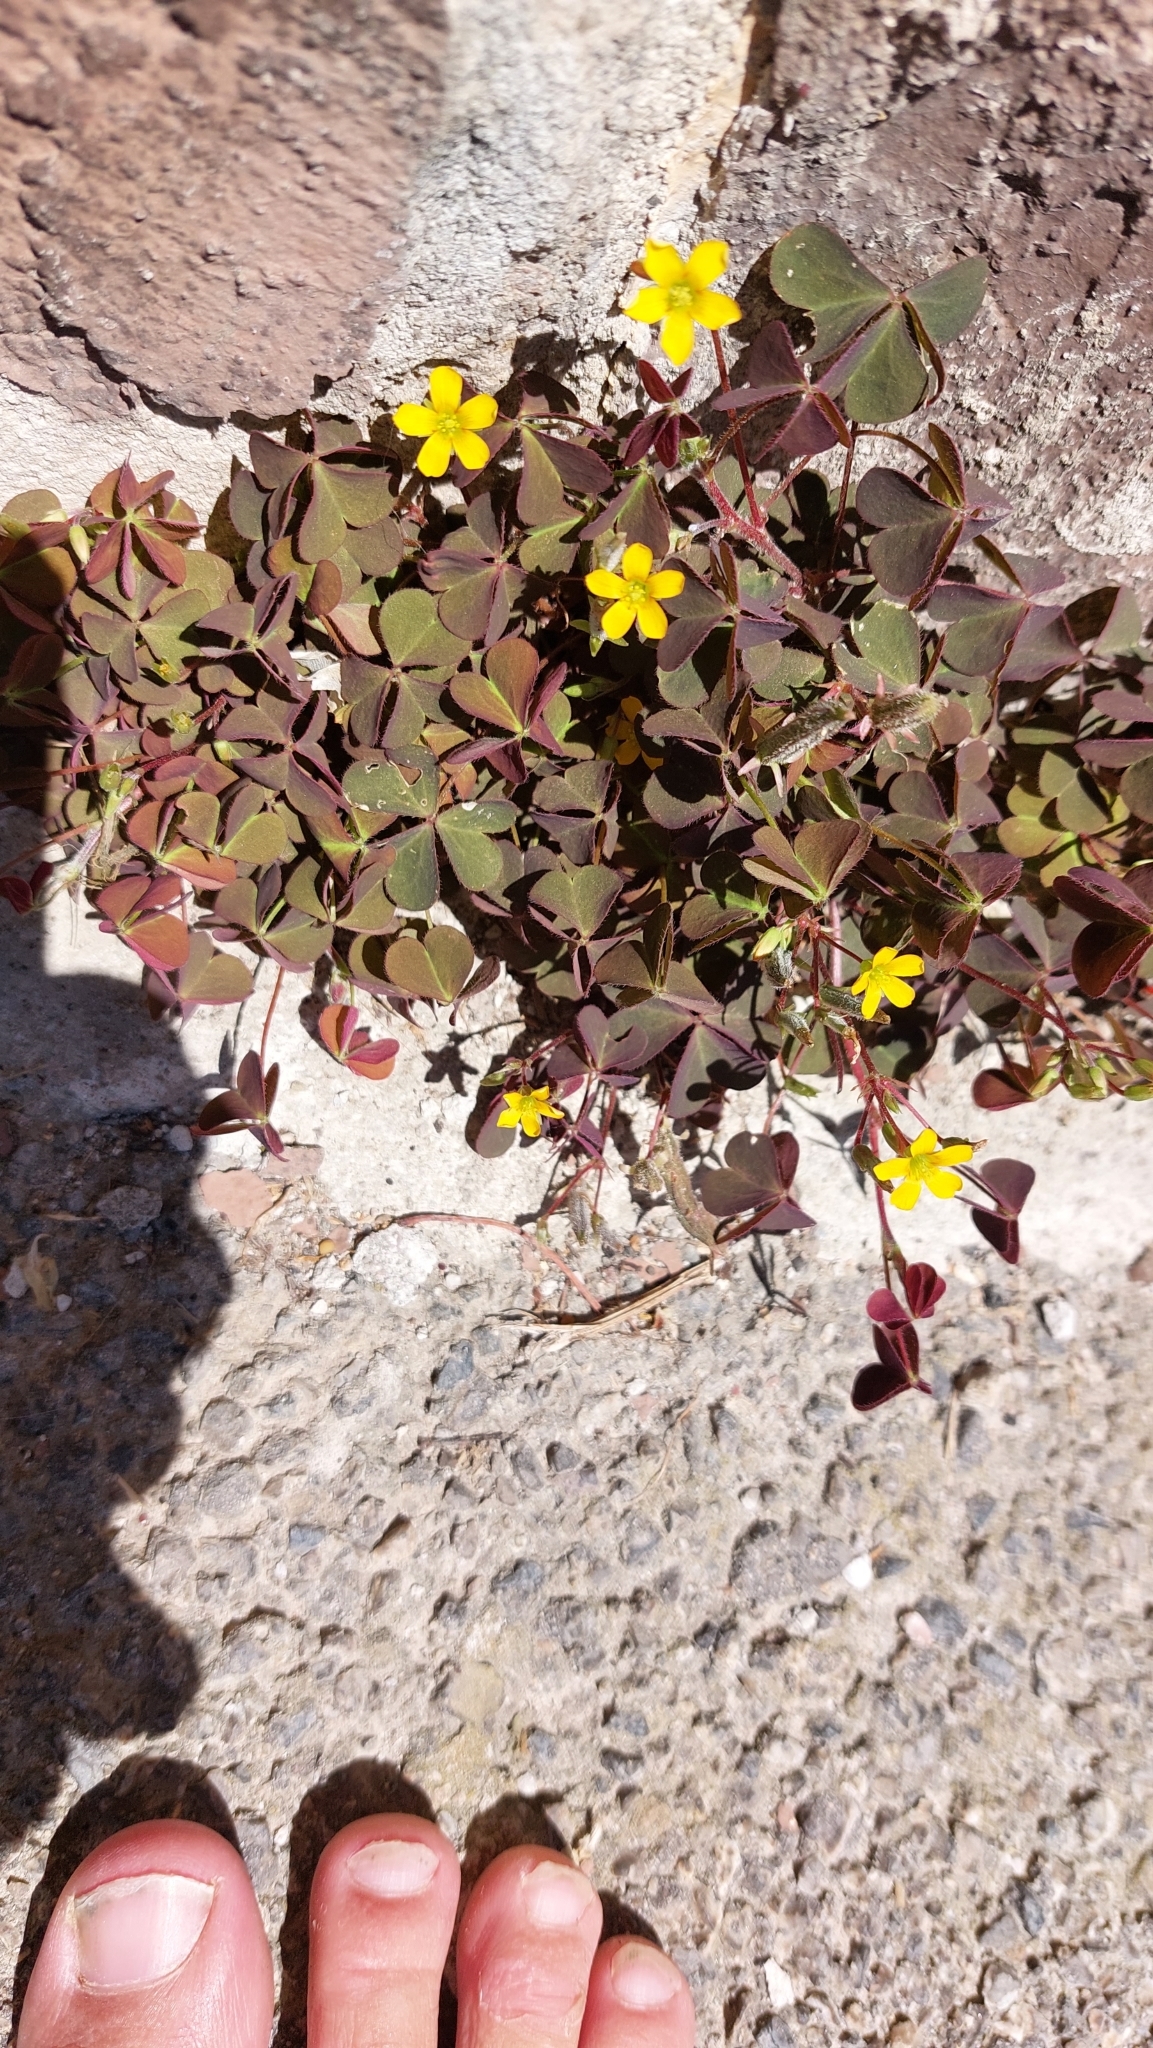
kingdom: Plantae
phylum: Tracheophyta
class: Magnoliopsida
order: Oxalidales
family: Oxalidaceae
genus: Oxalis
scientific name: Oxalis corniculata
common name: Procumbent yellow-sorrel
